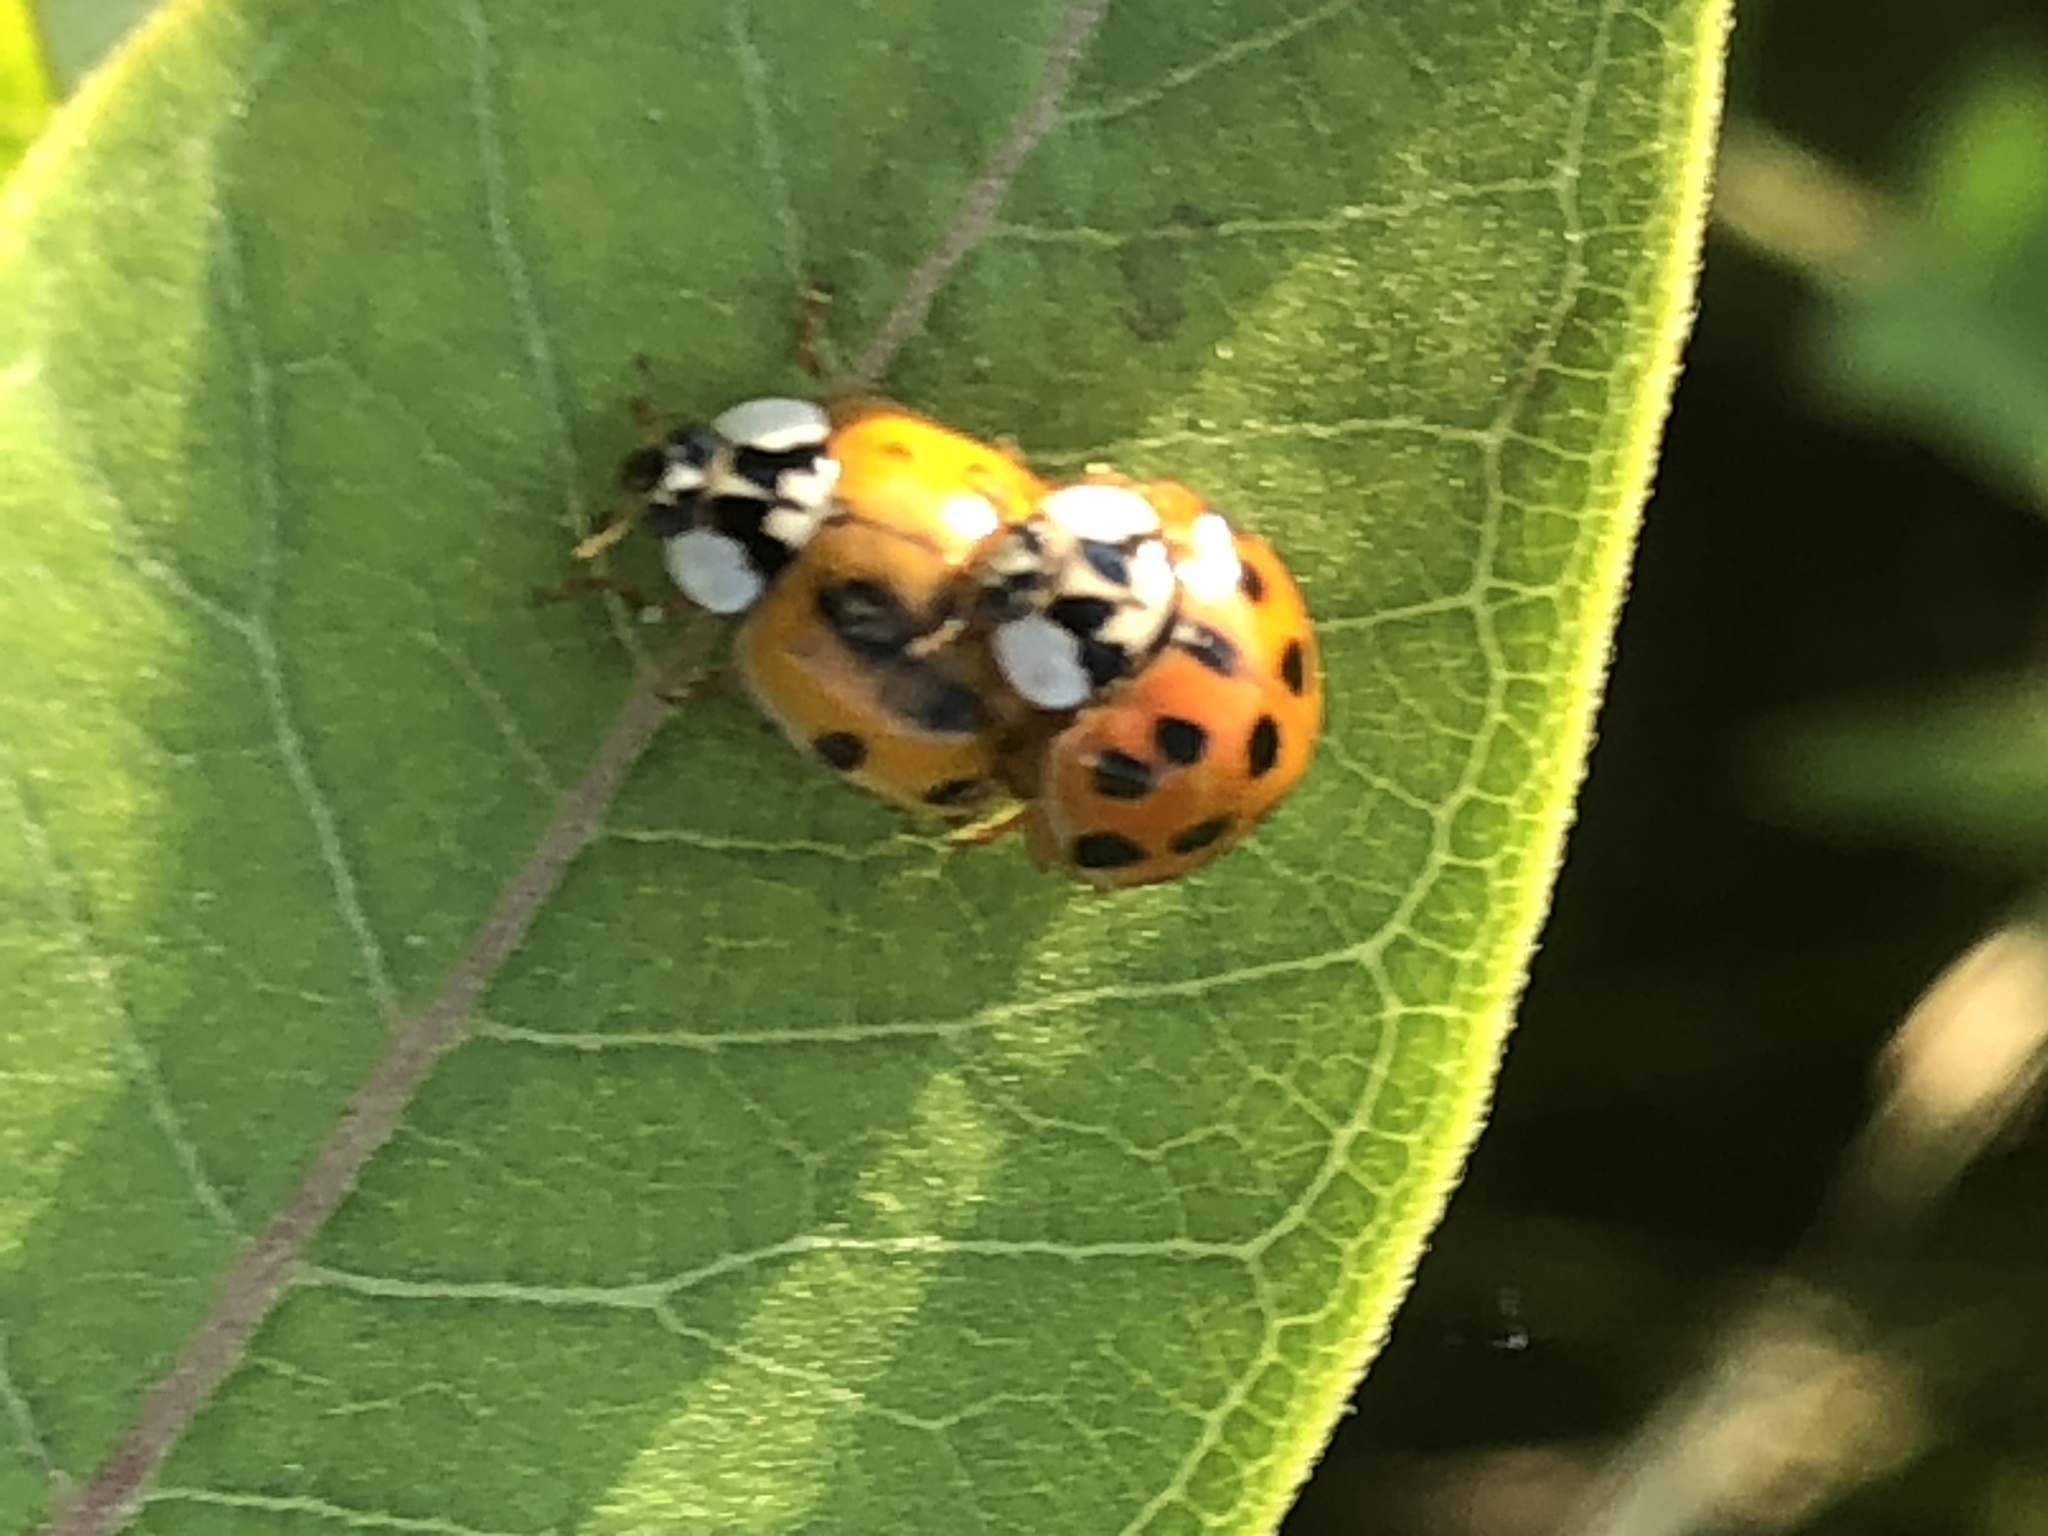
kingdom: Animalia
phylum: Arthropoda
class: Insecta
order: Coleoptera
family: Coccinellidae
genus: Harmonia
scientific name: Harmonia axyridis
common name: Harlequin ladybird
